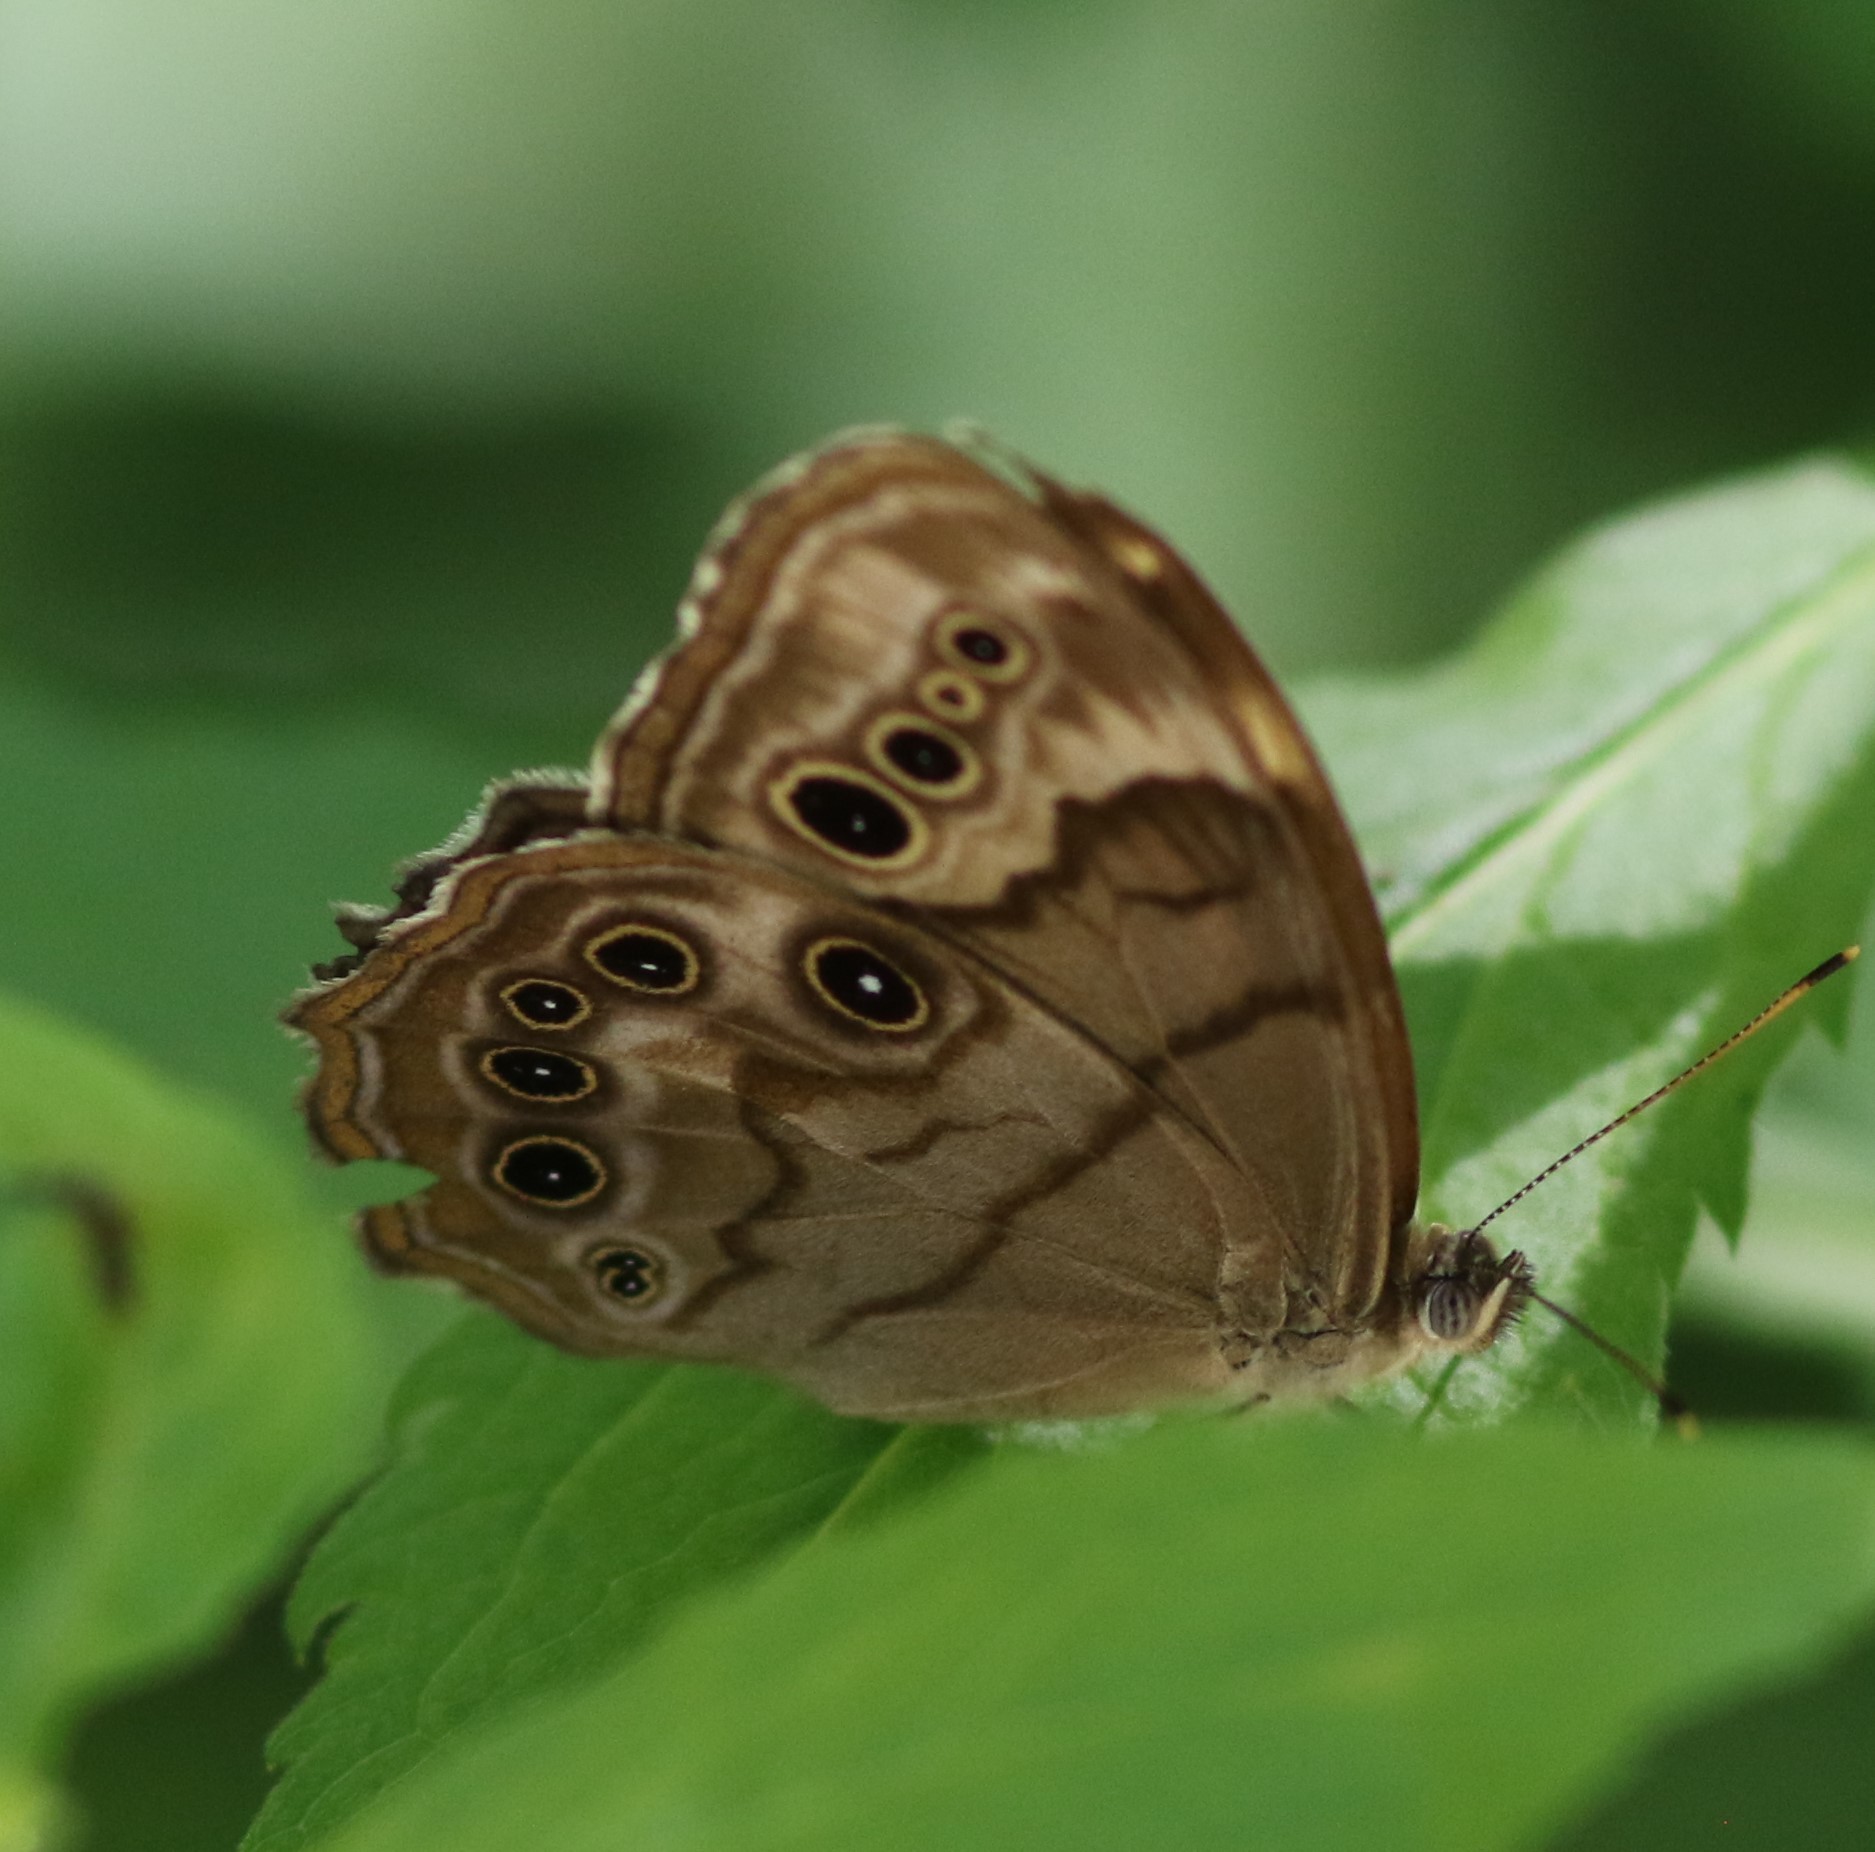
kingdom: Animalia
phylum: Arthropoda
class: Insecta
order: Lepidoptera
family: Nymphalidae
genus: Lethe
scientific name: Lethe anthedon
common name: Northern pearly-eye
